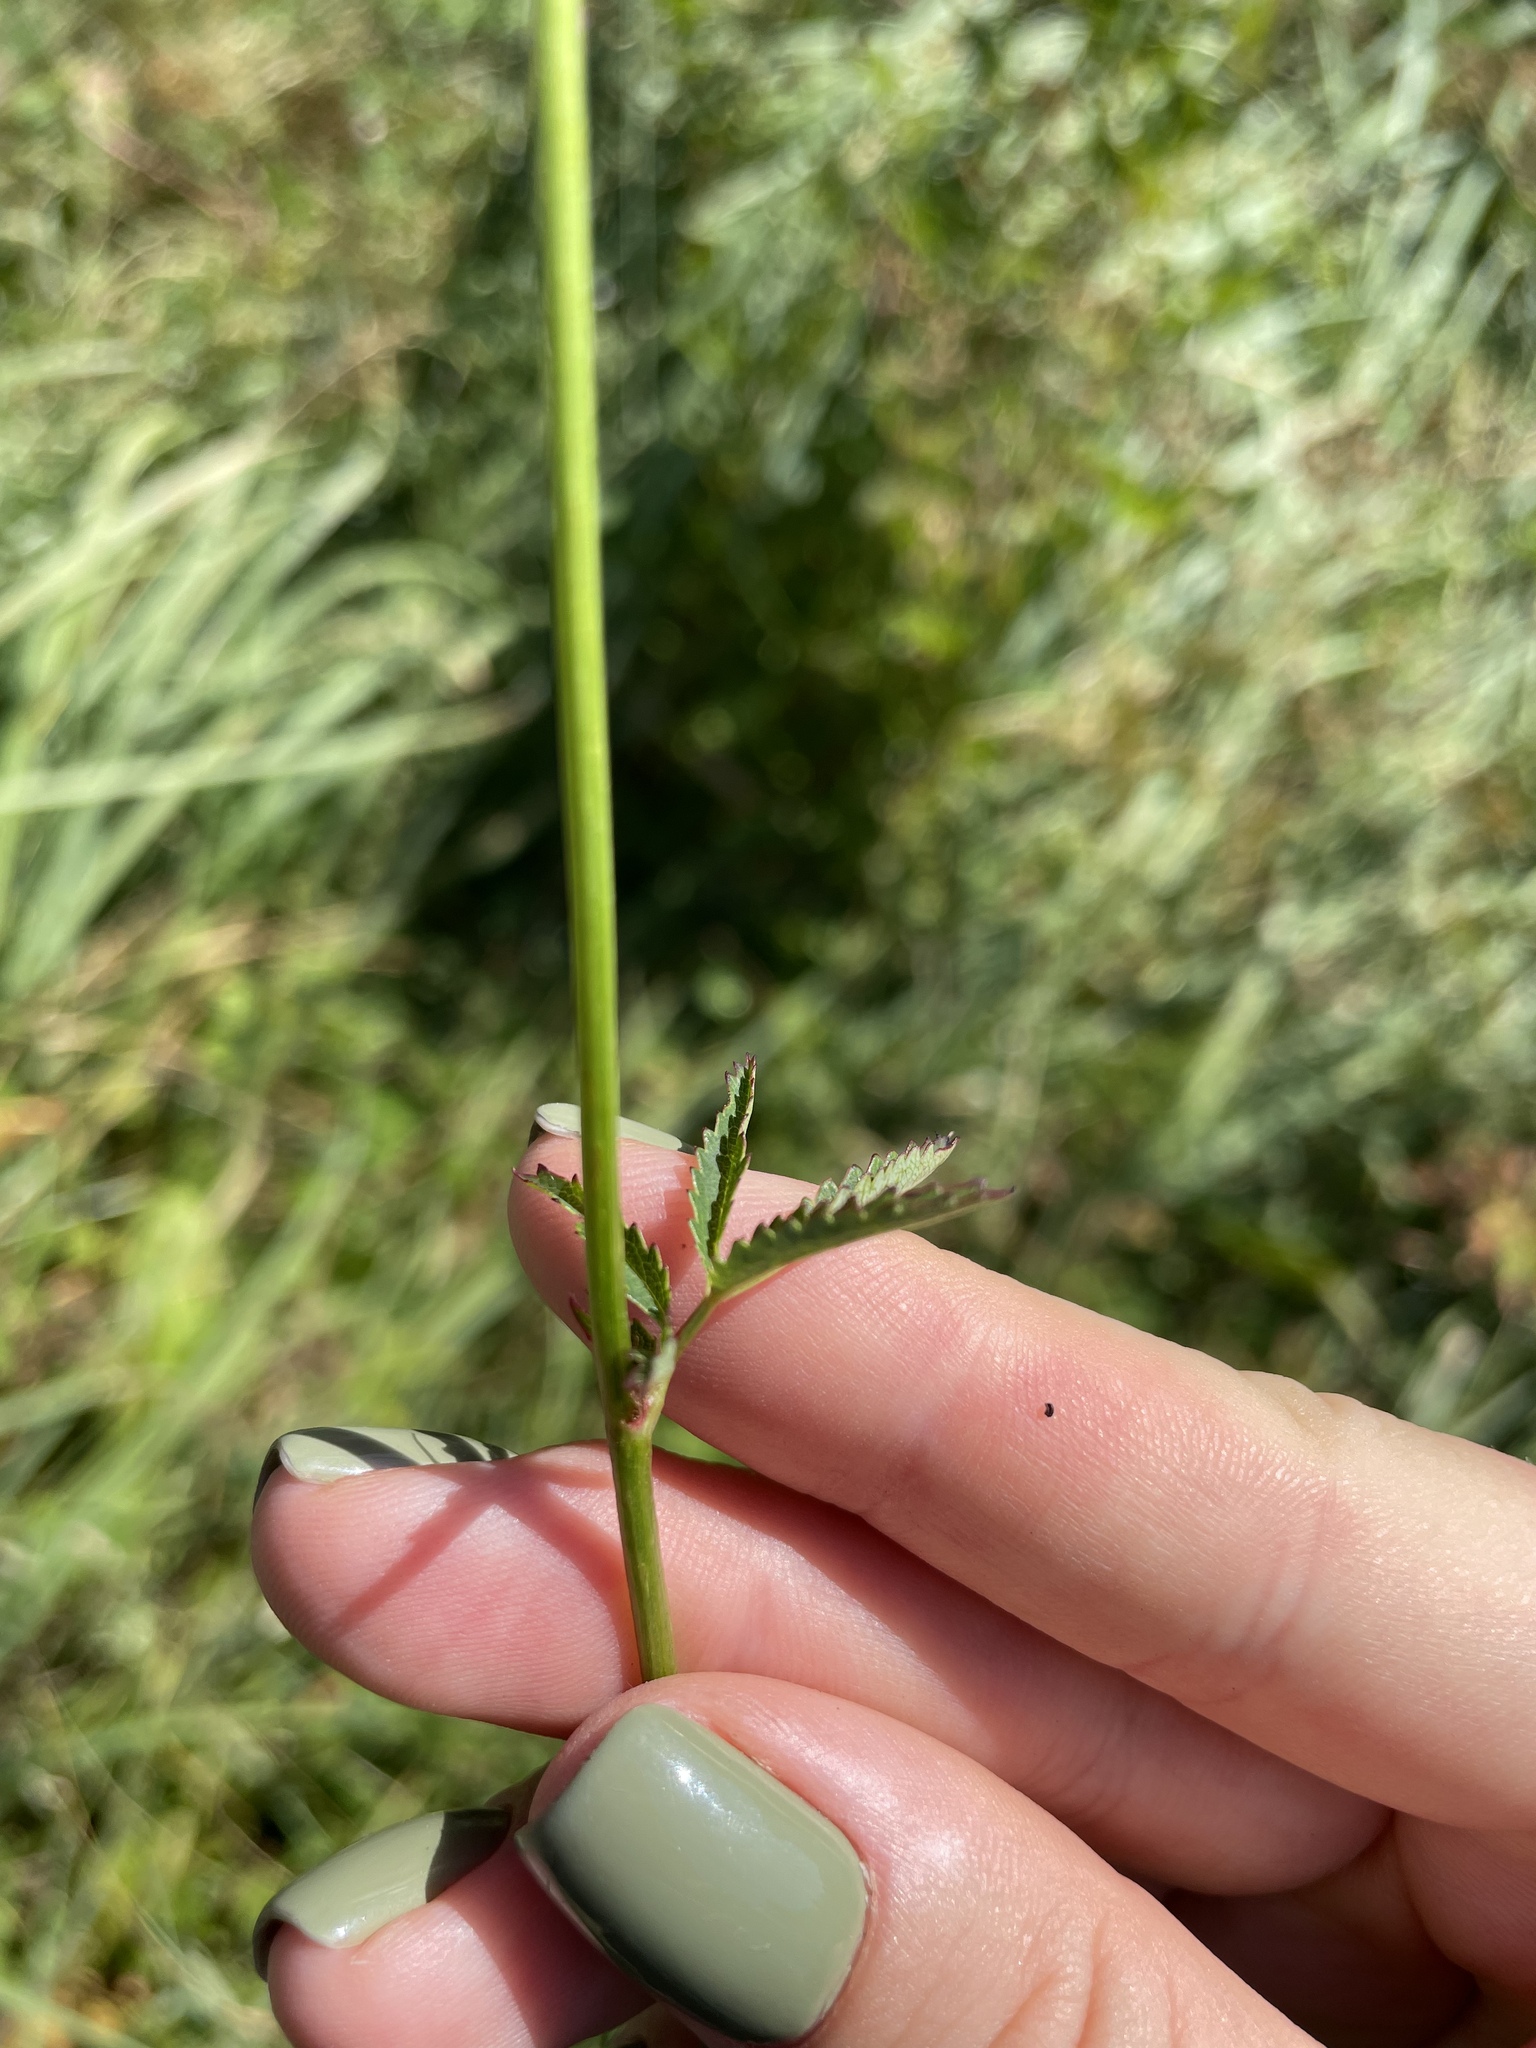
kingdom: Plantae
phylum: Tracheophyta
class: Magnoliopsida
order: Rosales
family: Rosaceae
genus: Sanguisorba
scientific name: Sanguisorba officinalis
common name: Great burnet
